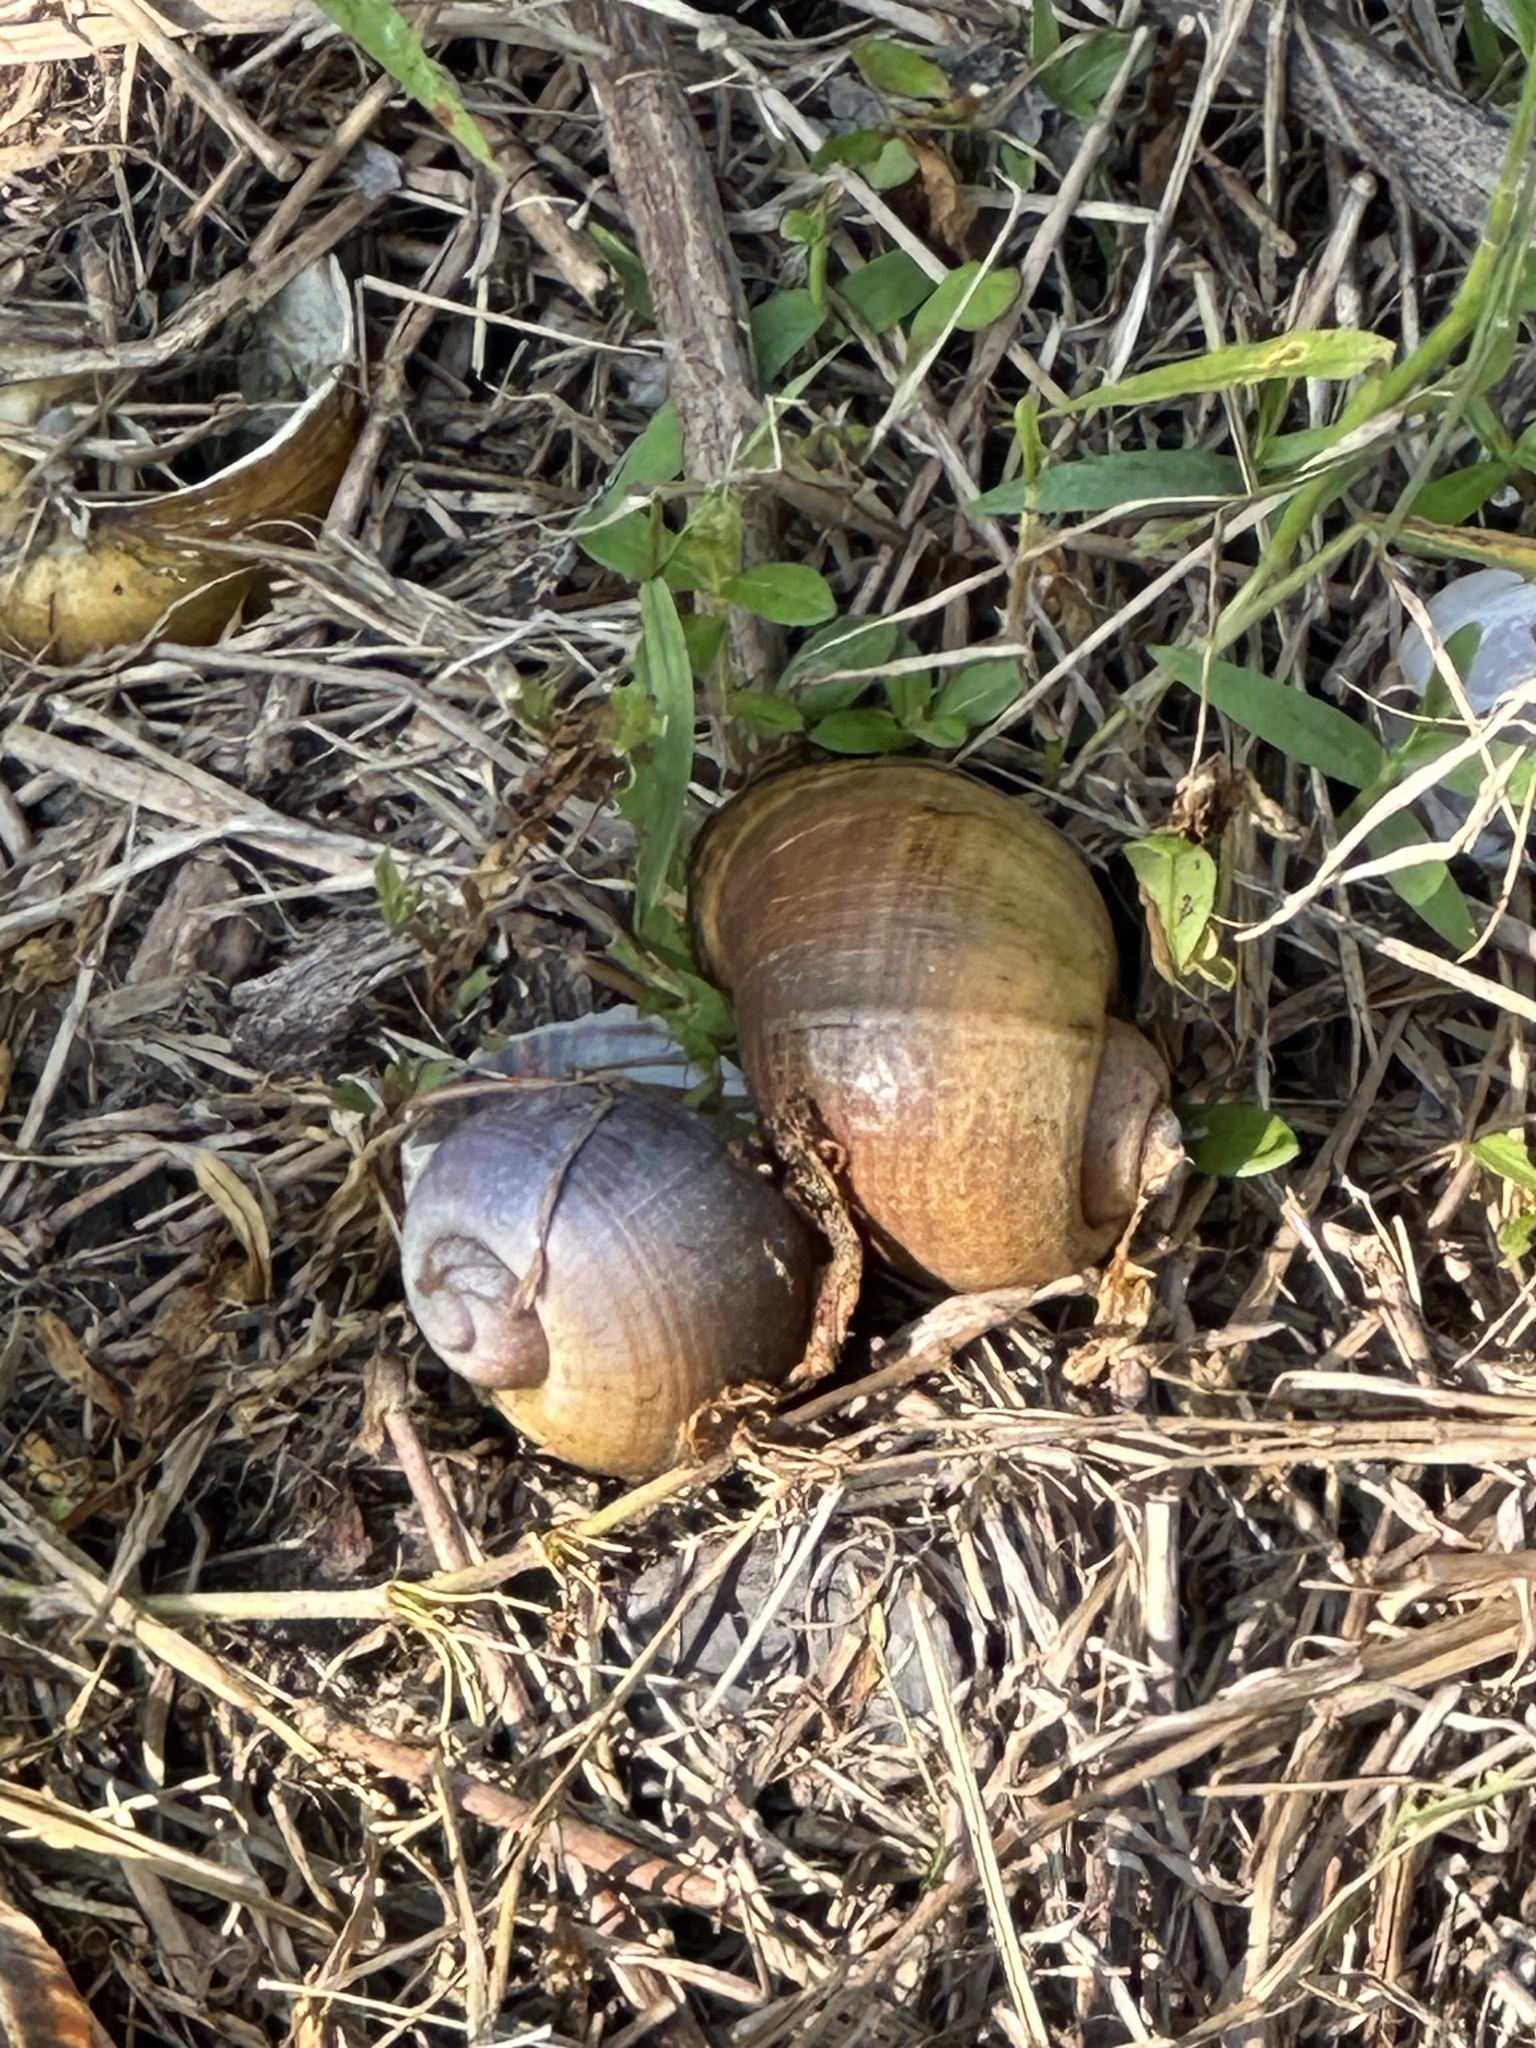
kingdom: Animalia
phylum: Mollusca
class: Gastropoda
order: Architaenioglossa
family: Ampullariidae
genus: Pomacea
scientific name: Pomacea maculata
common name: Giant applesnail
